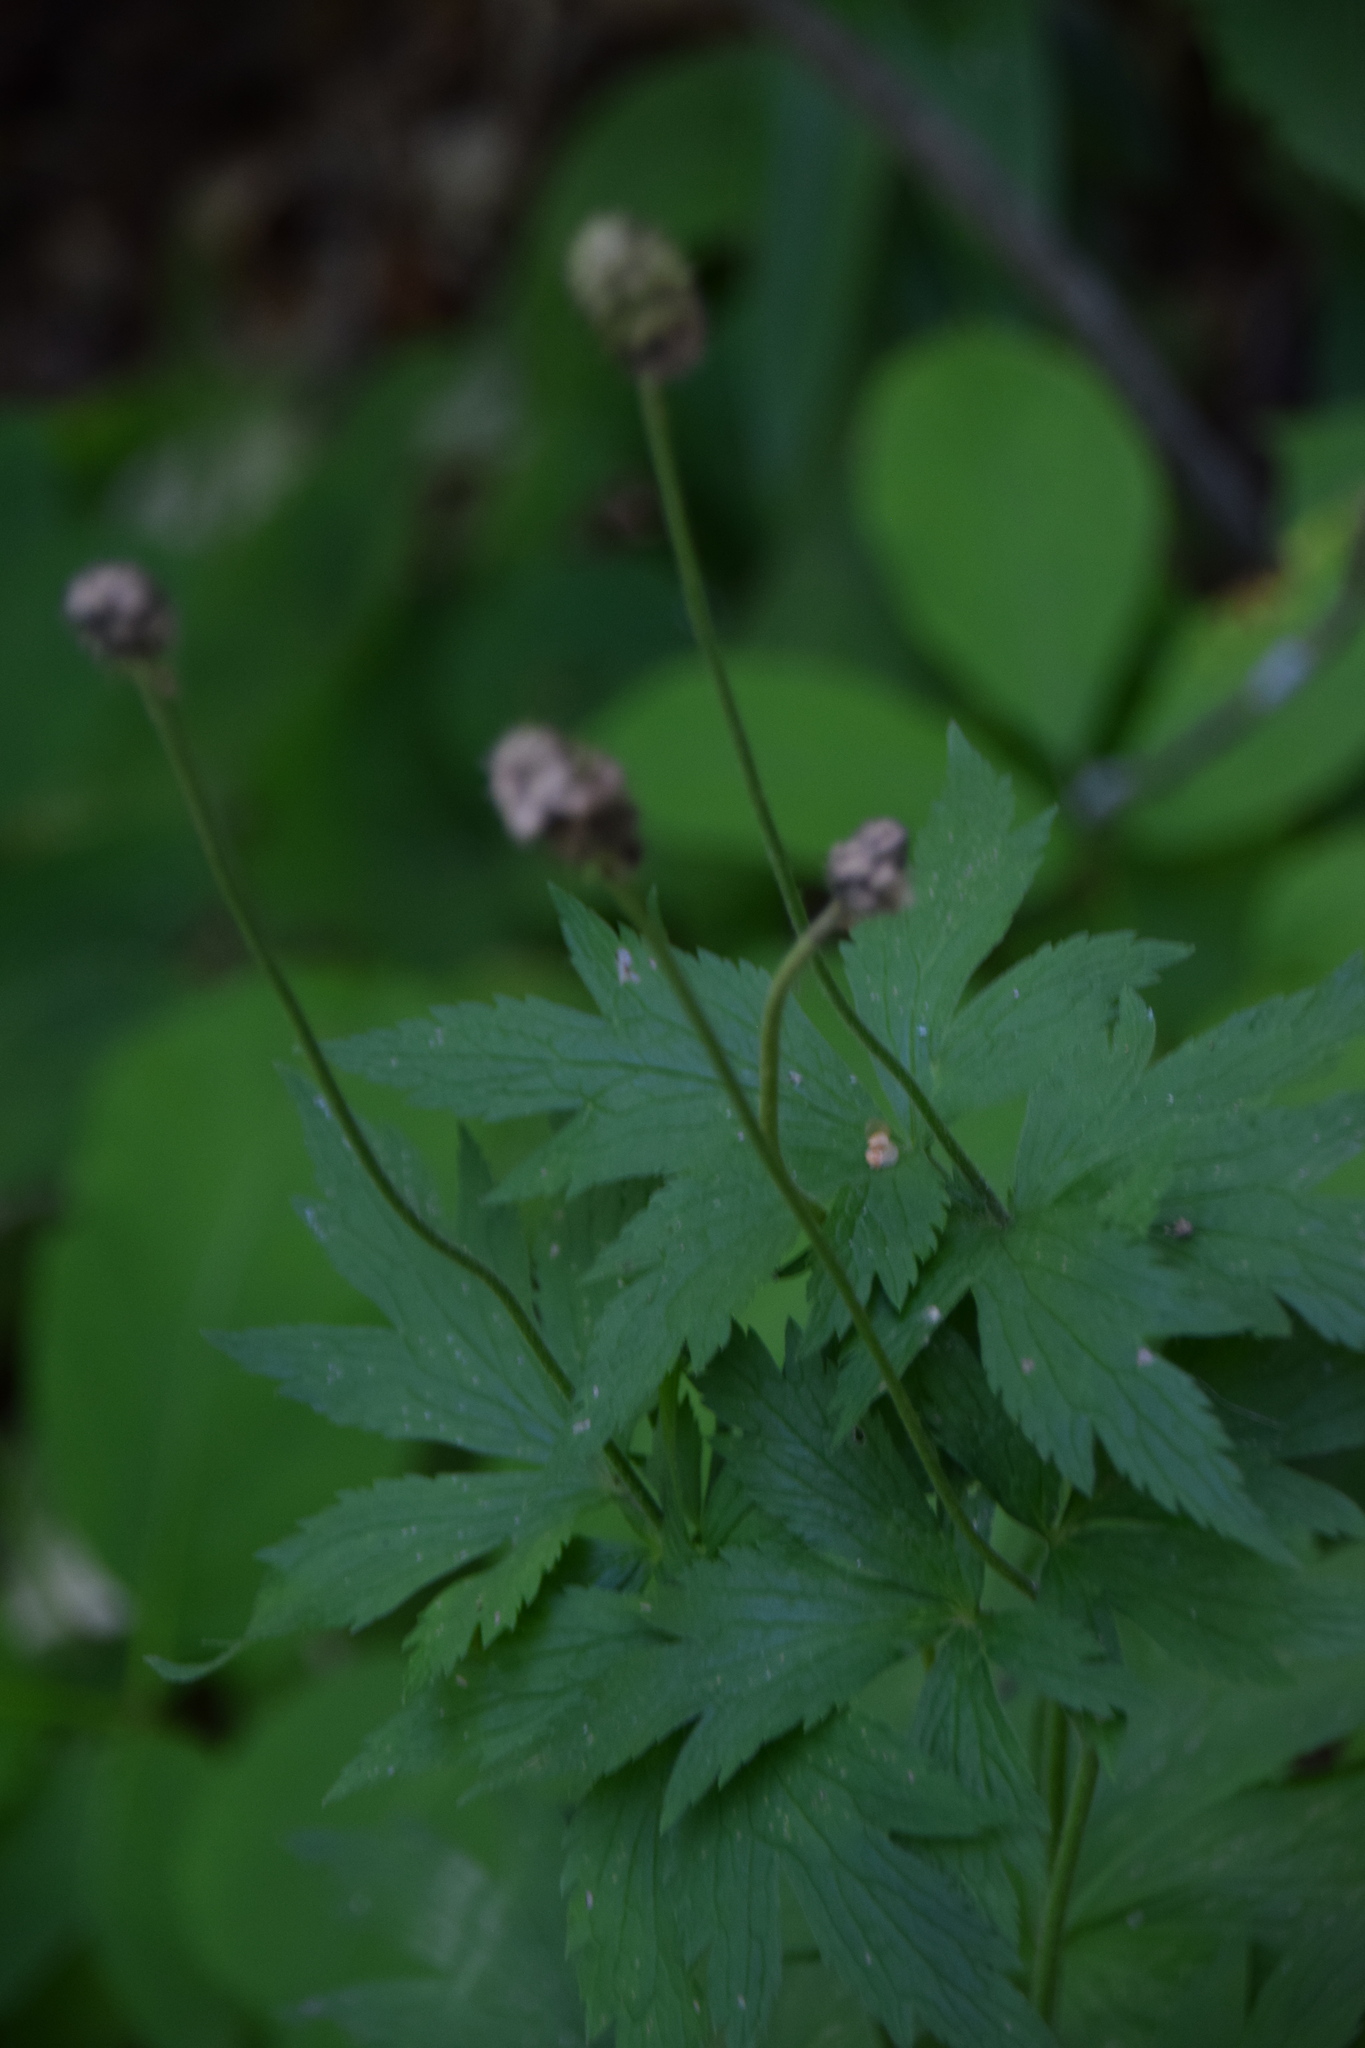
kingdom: Plantae
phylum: Tracheophyta
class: Magnoliopsida
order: Ranunculales
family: Ranunculaceae
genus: Anemone
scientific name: Anemone virginiana
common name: Tall anemone
